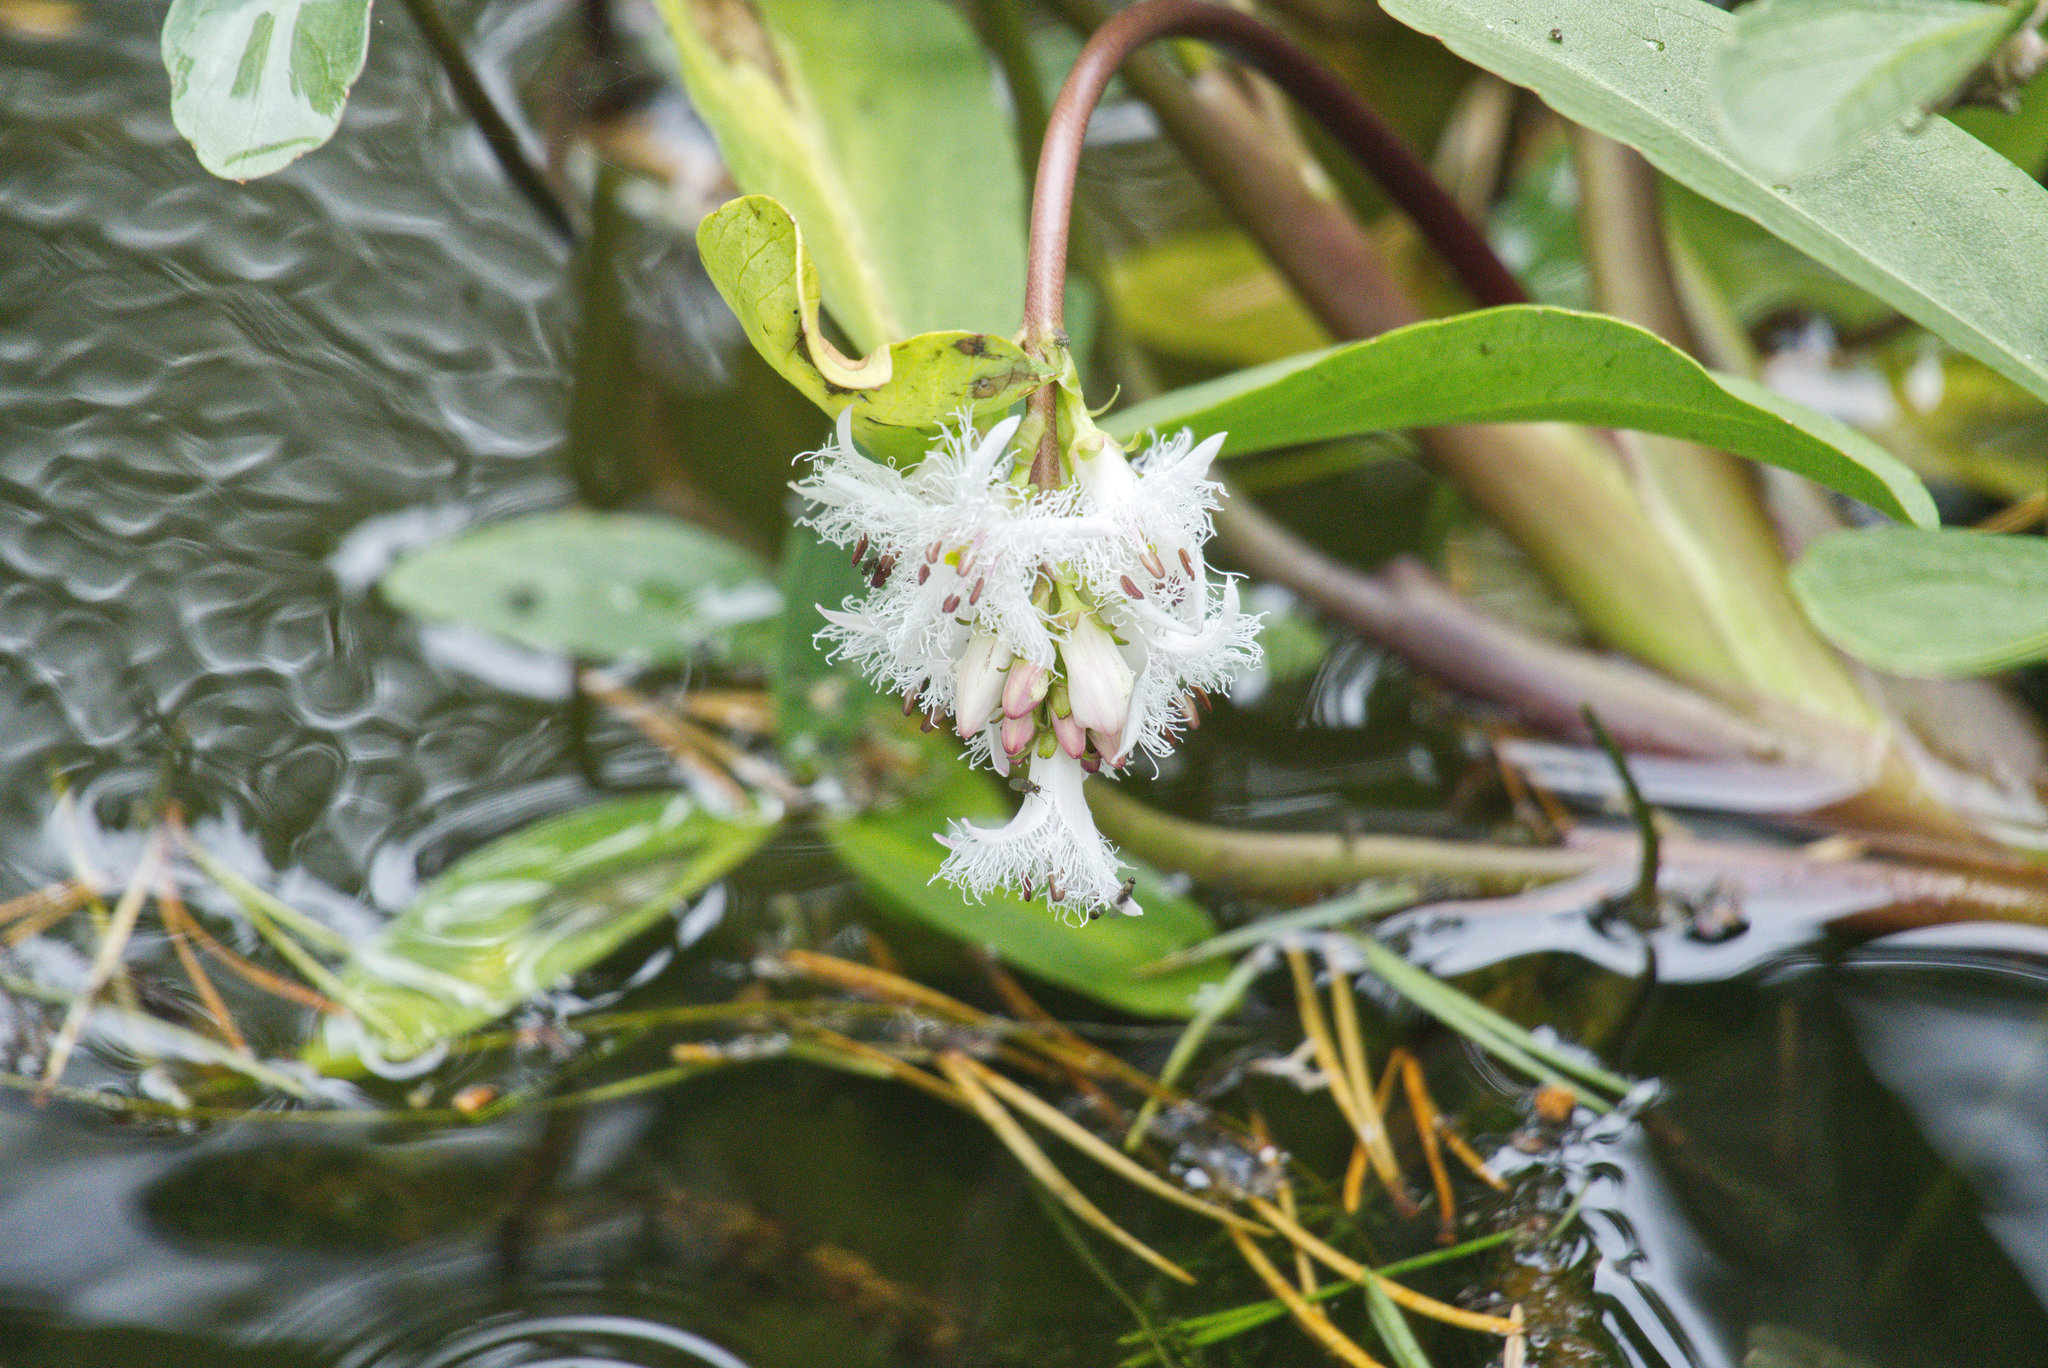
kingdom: Plantae
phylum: Tracheophyta
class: Magnoliopsida
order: Asterales
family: Menyanthaceae
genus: Menyanthes
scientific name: Menyanthes trifoliata
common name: Bogbean
